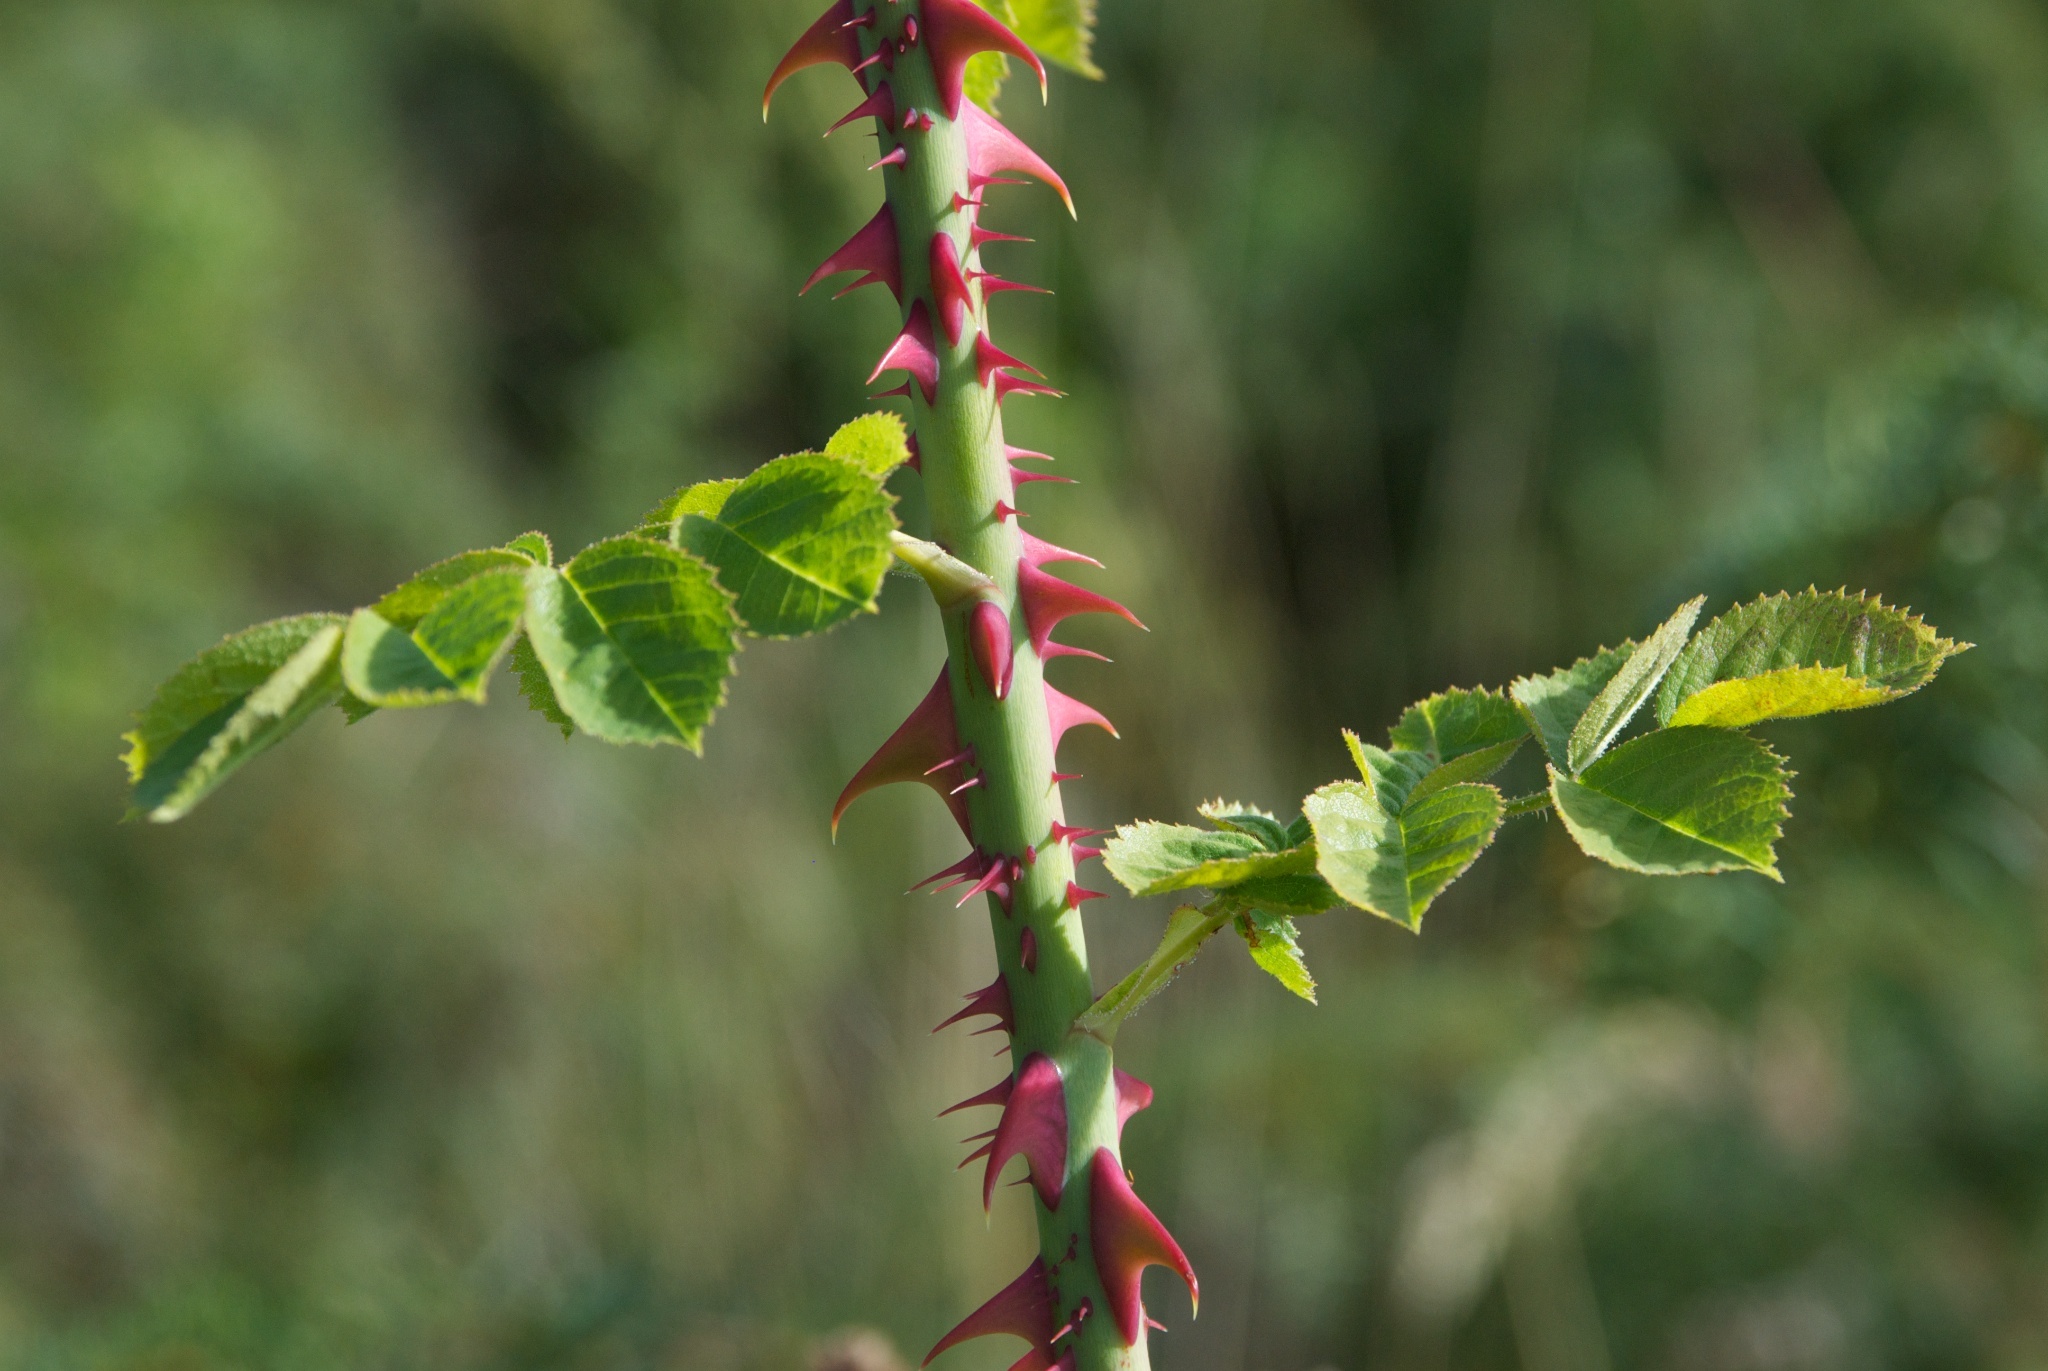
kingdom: Plantae
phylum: Tracheophyta
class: Magnoliopsida
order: Rosales
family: Rosaceae
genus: Rosa
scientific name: Rosa rubiginosa
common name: Sweet-briar
